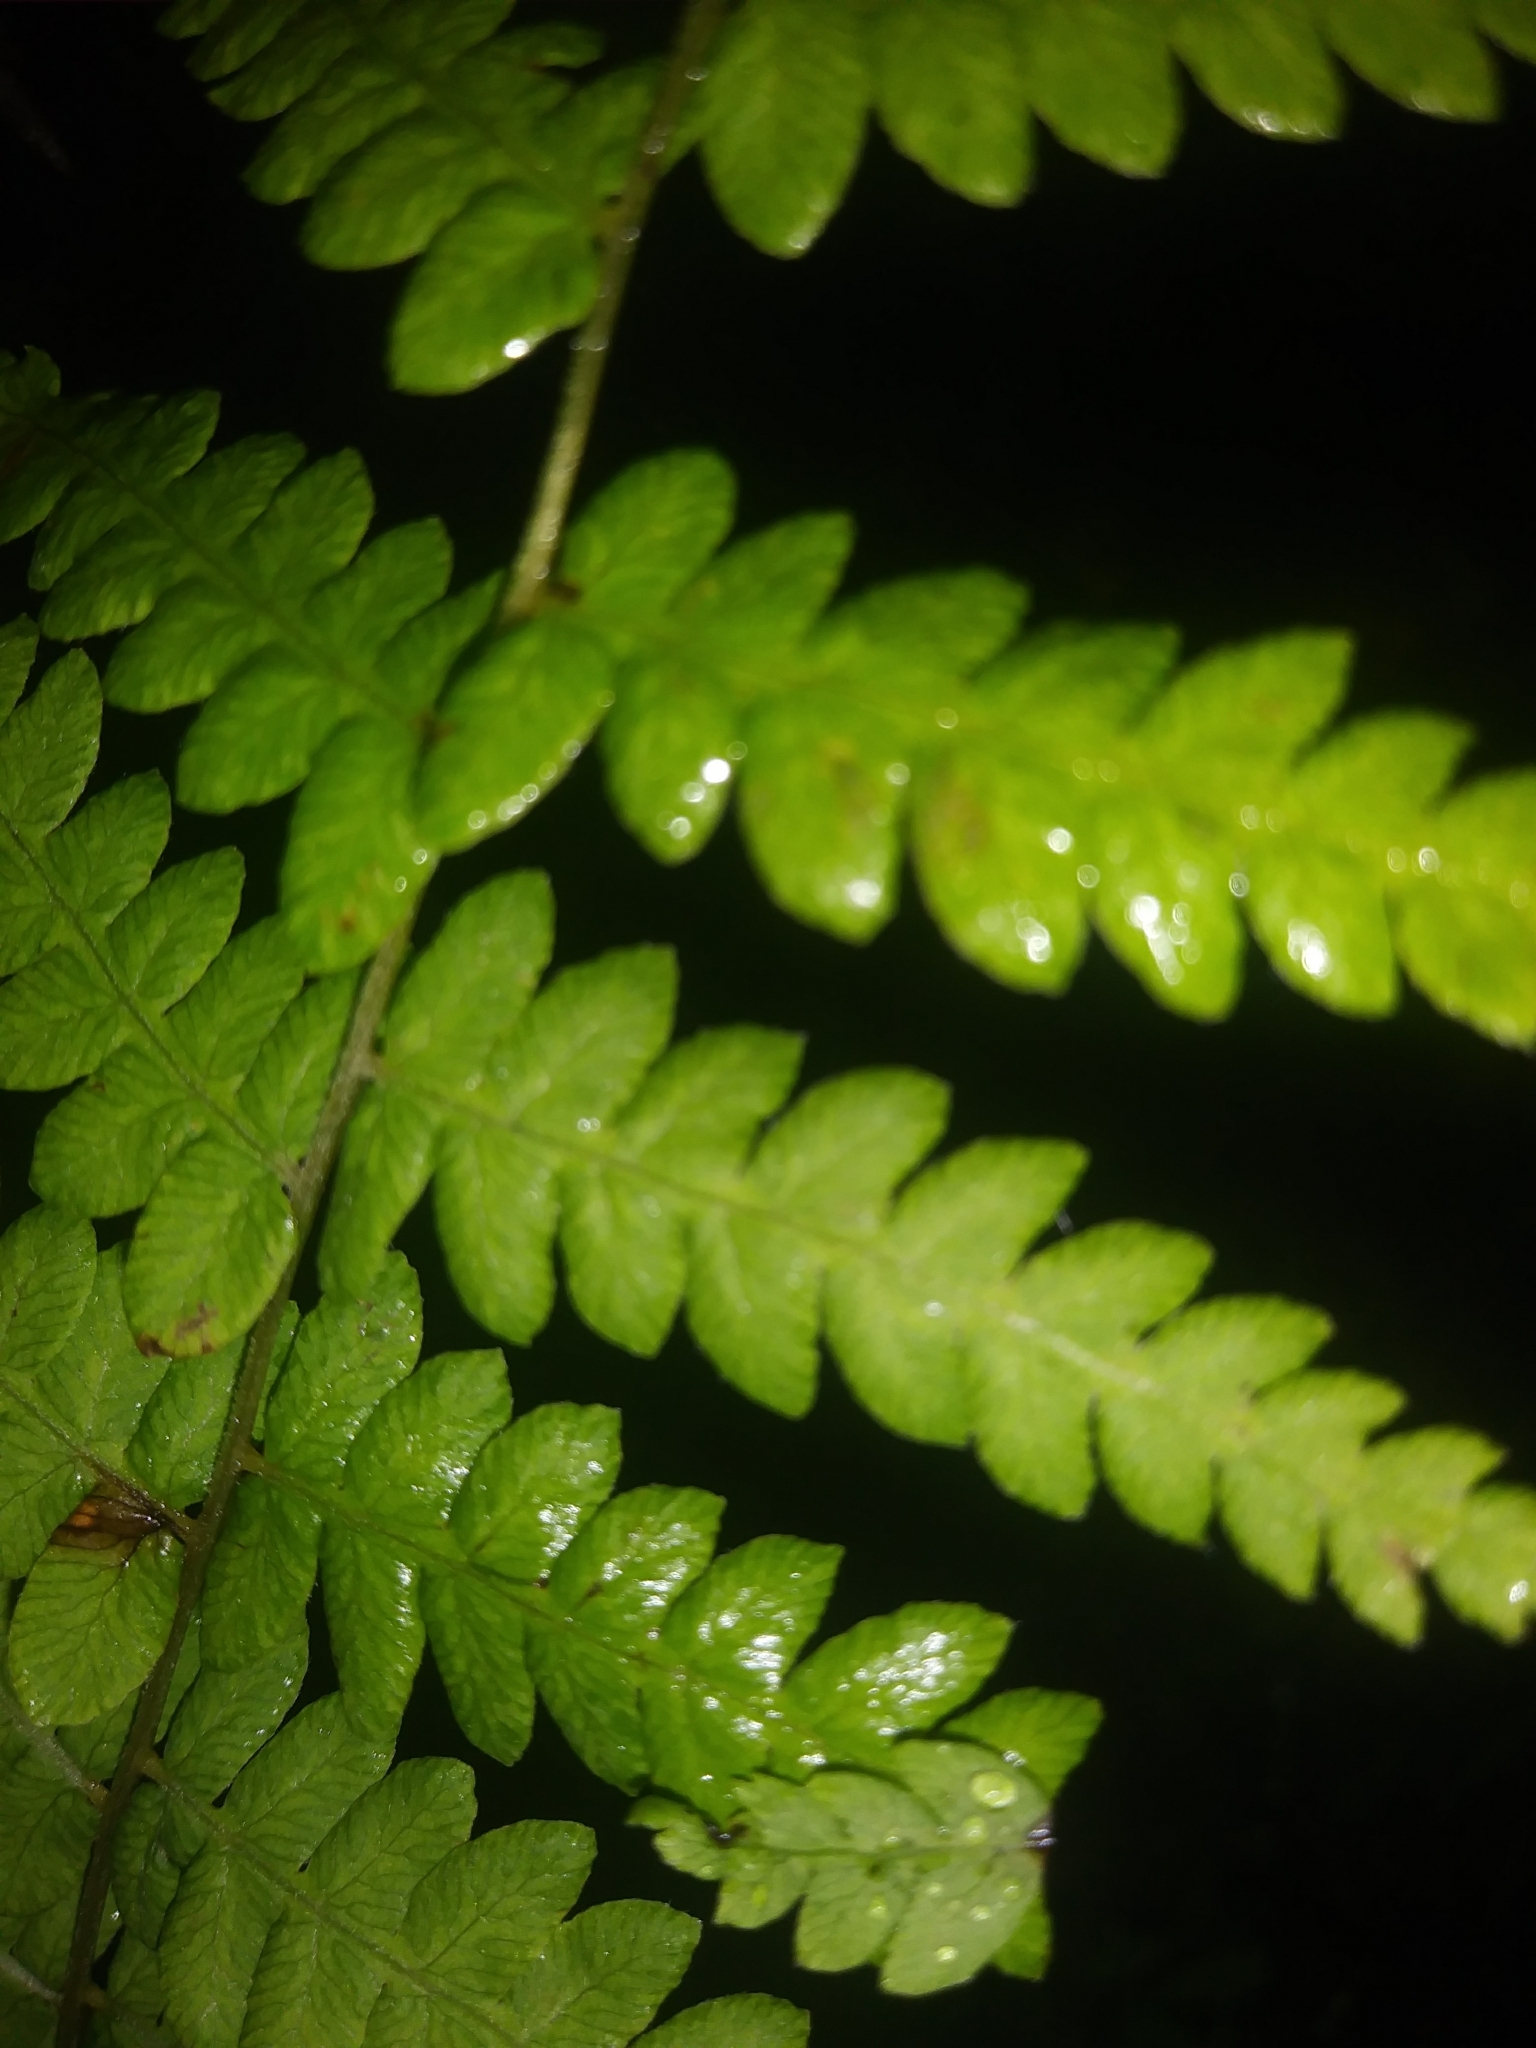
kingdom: Plantae
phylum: Tracheophyta
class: Polypodiopsida
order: Polypodiales
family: Thelypteridaceae
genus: Thelypteris
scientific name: Thelypteris palustris
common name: Marsh fern
